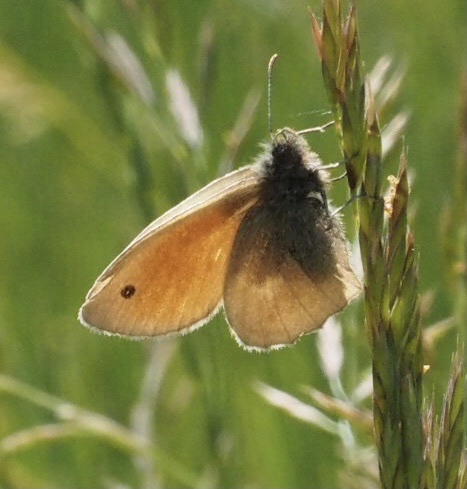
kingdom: Animalia
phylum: Arthropoda
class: Insecta
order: Lepidoptera
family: Nymphalidae
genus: Coenonympha
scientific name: Coenonympha pamphilus
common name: Small heath
